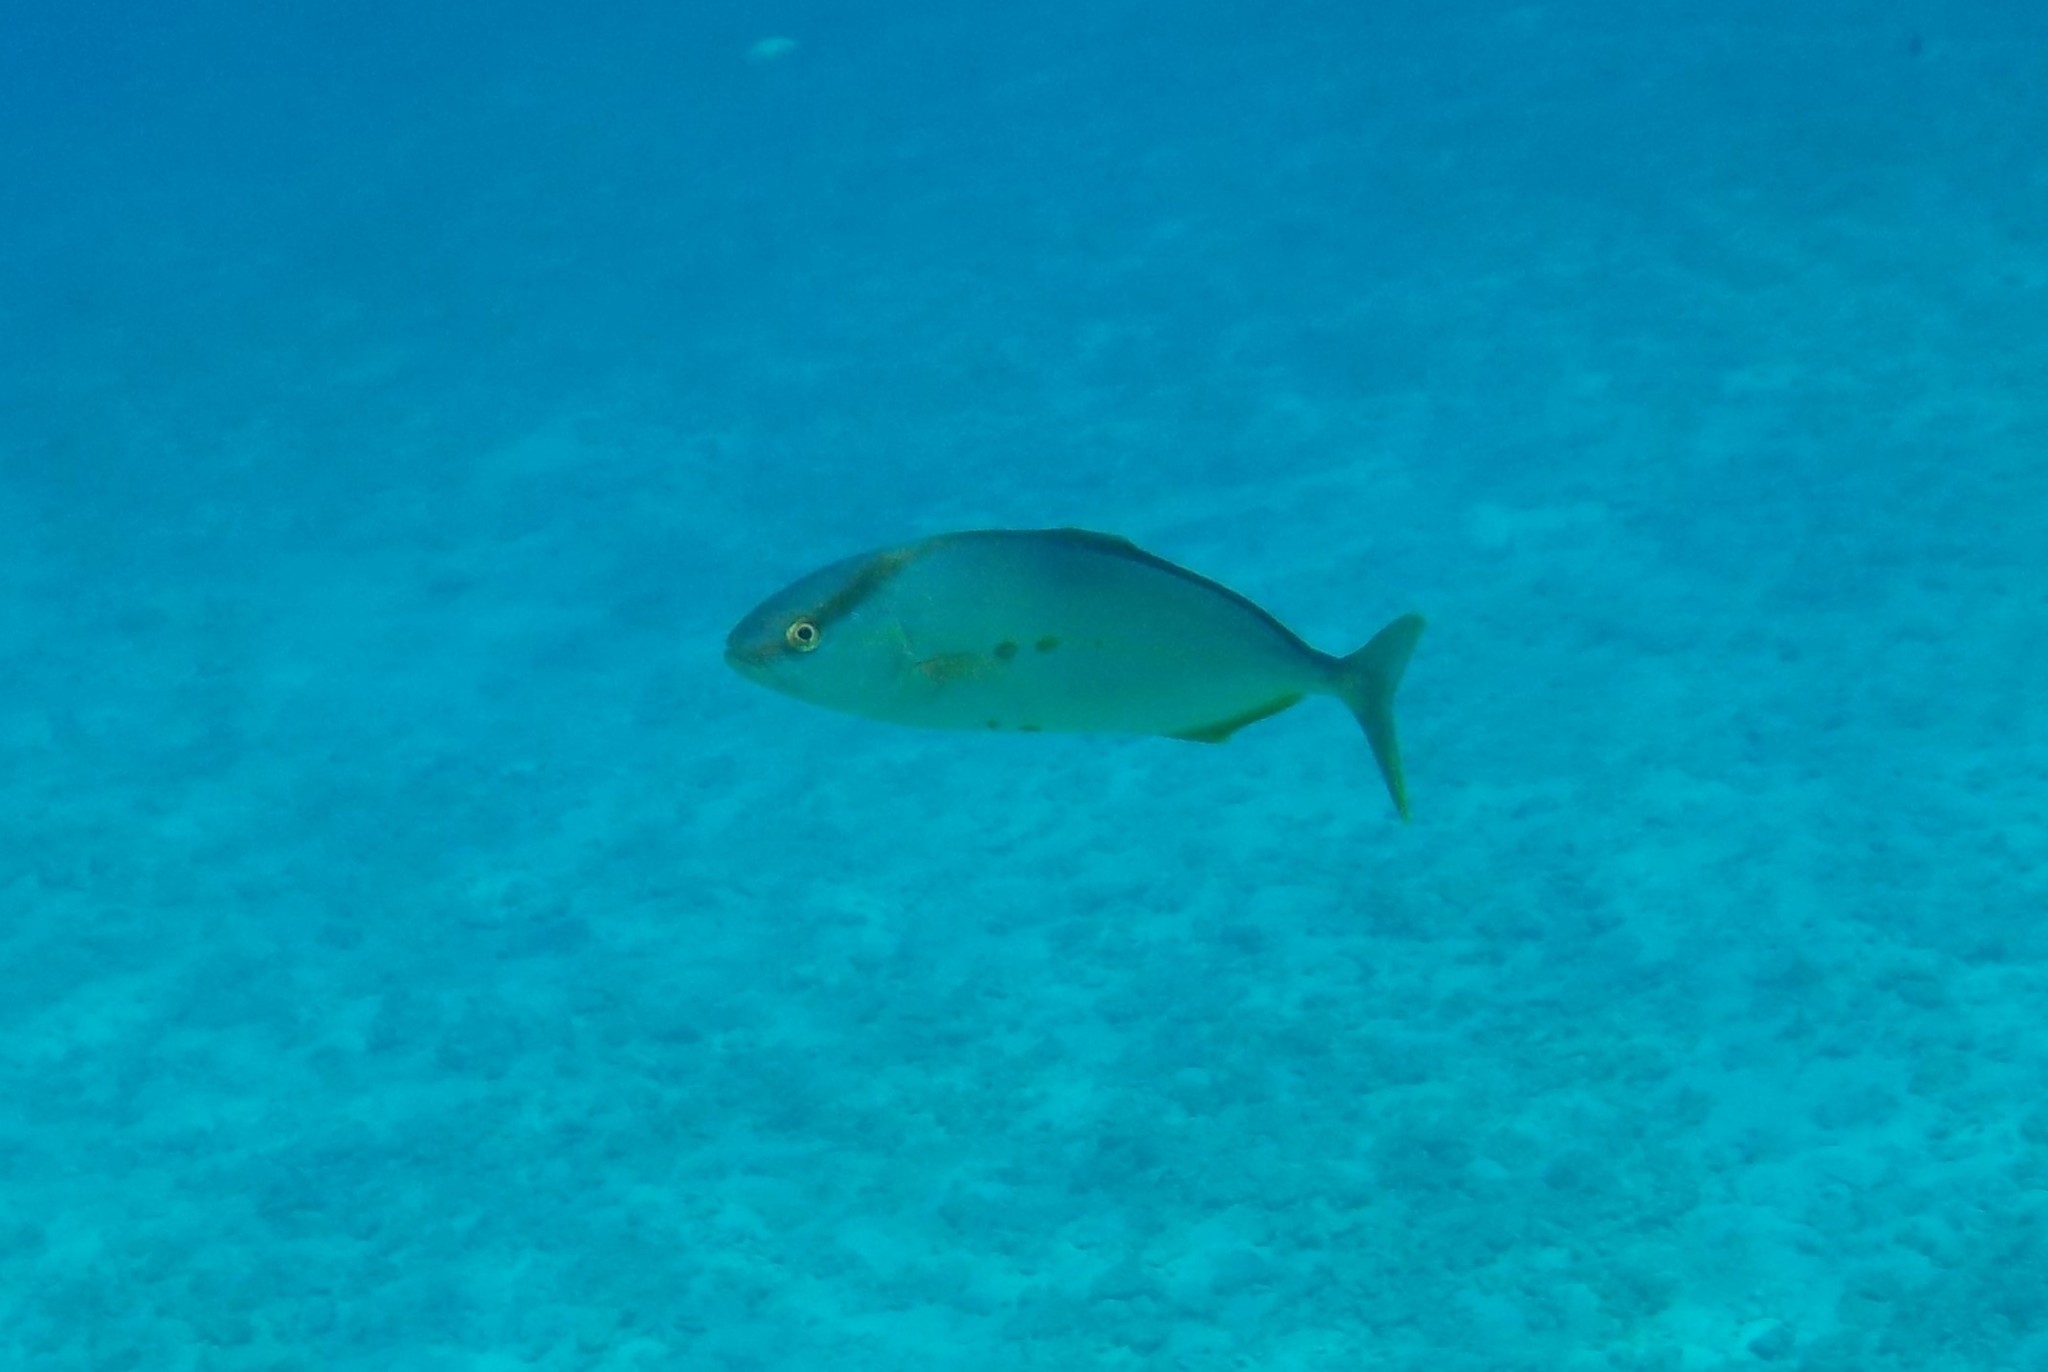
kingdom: Animalia
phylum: Chordata
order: Perciformes
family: Carangidae
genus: Seriola
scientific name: Seriola dumerili
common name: Greater amberjack
